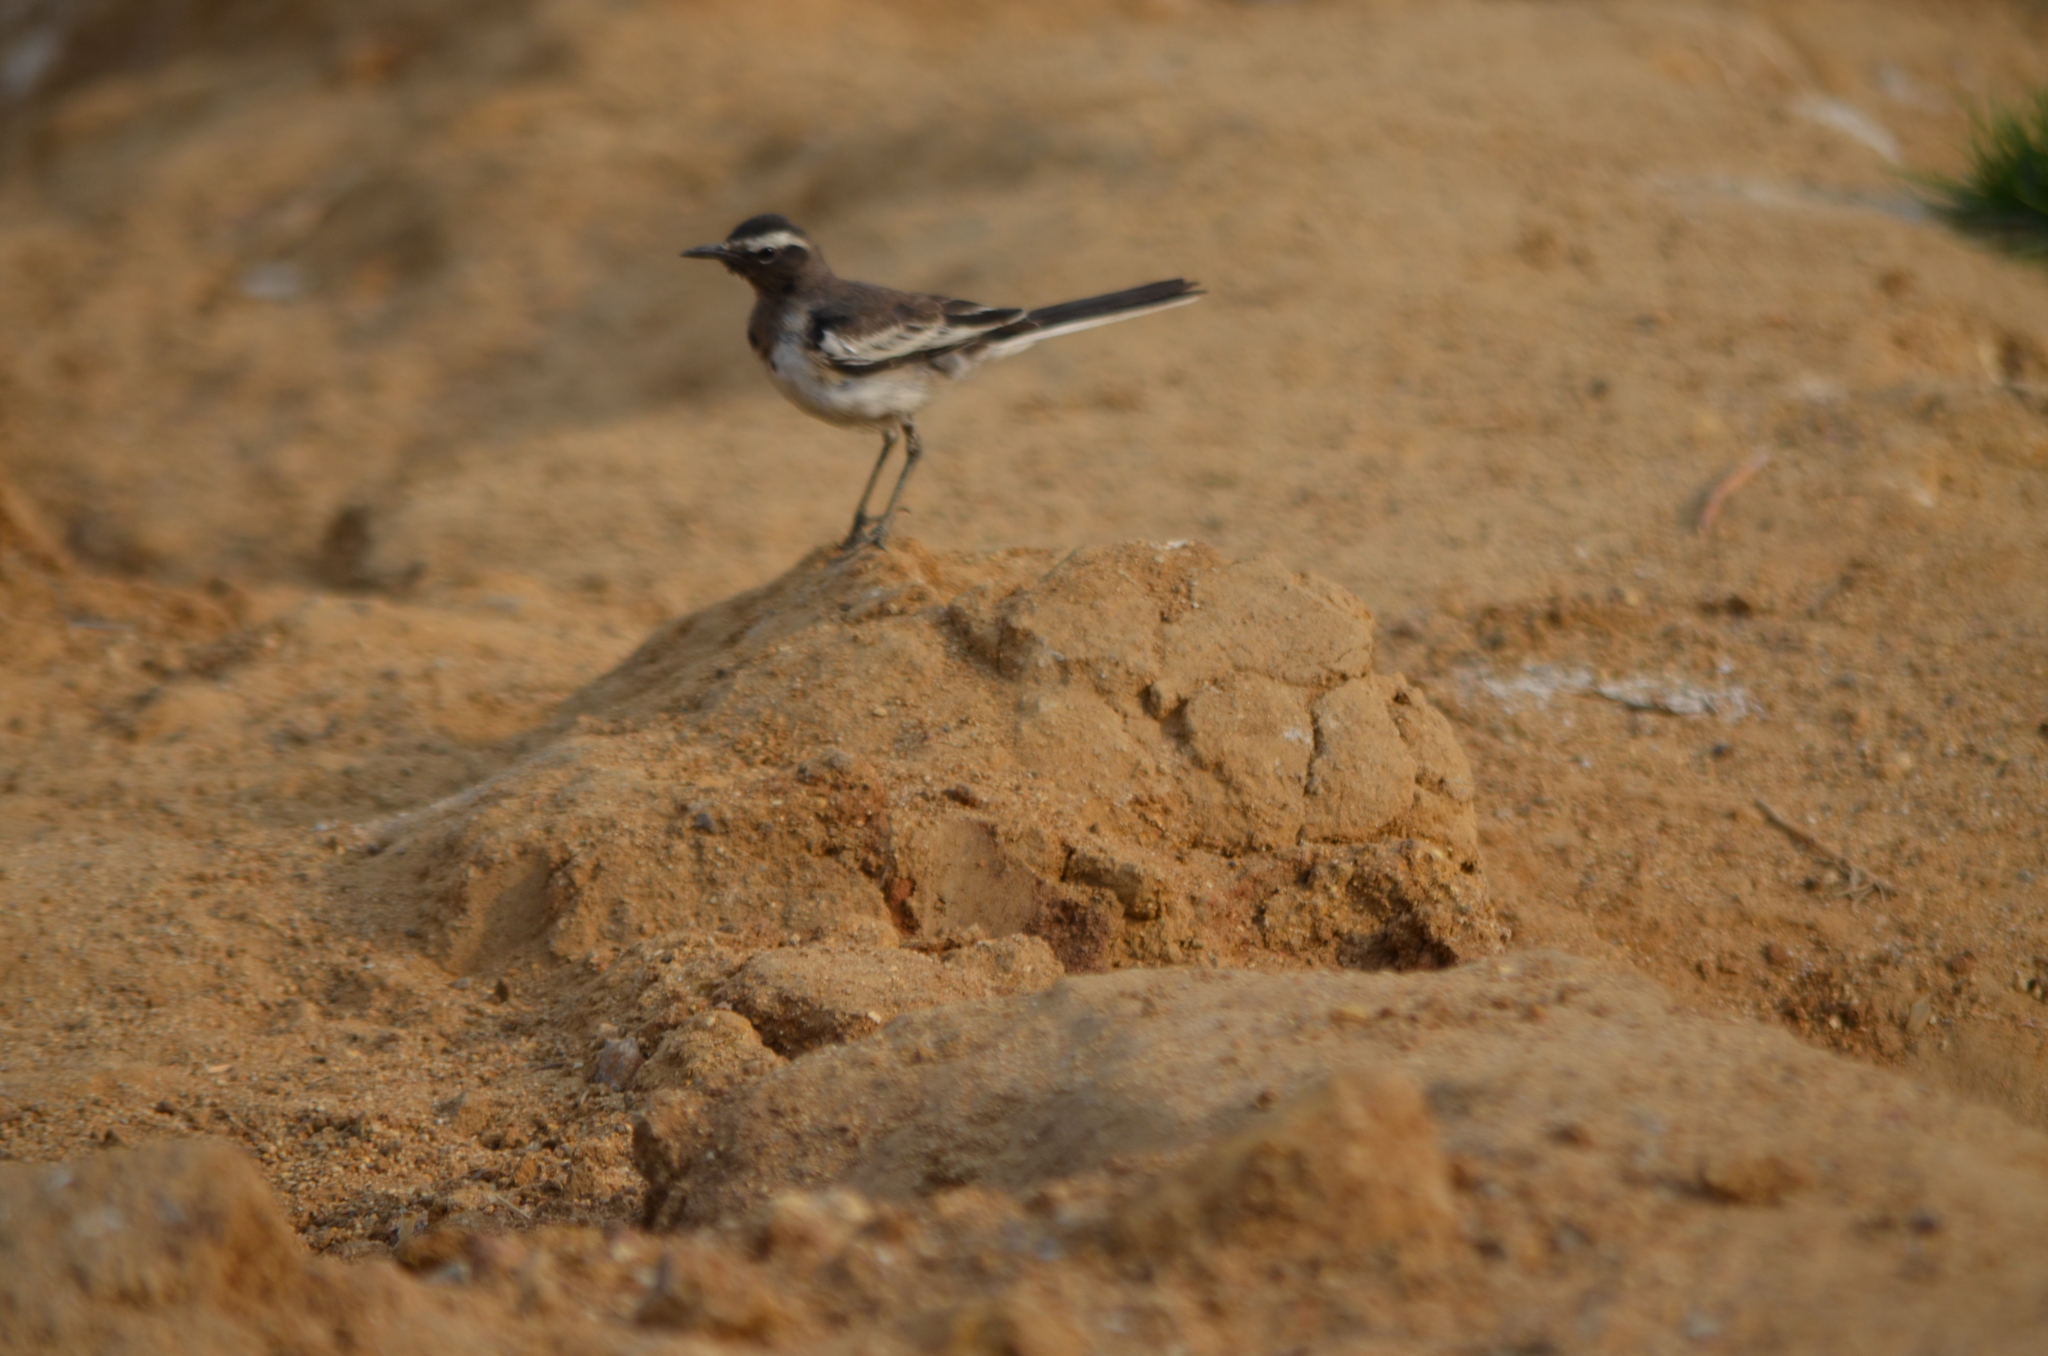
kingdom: Animalia
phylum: Chordata
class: Aves
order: Passeriformes
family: Motacillidae
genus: Motacilla
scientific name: Motacilla maderaspatensis
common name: White-browed wagtail
